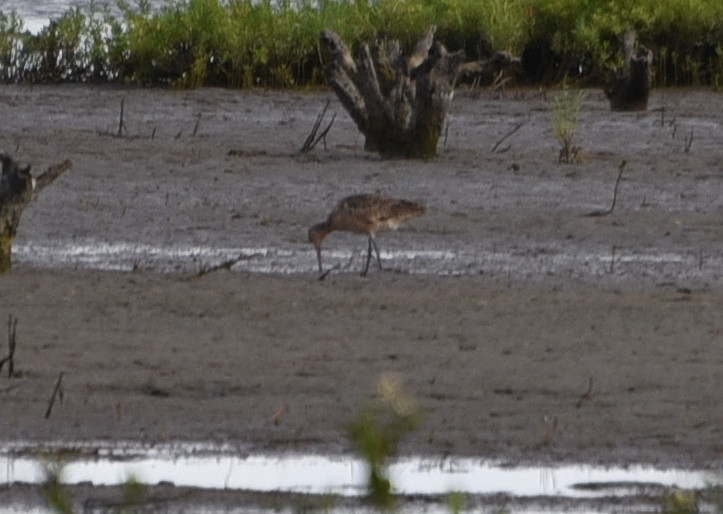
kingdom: Animalia
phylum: Chordata
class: Aves
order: Charadriiformes
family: Scolopacidae
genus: Limosa
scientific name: Limosa fedoa
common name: Marbled godwit
